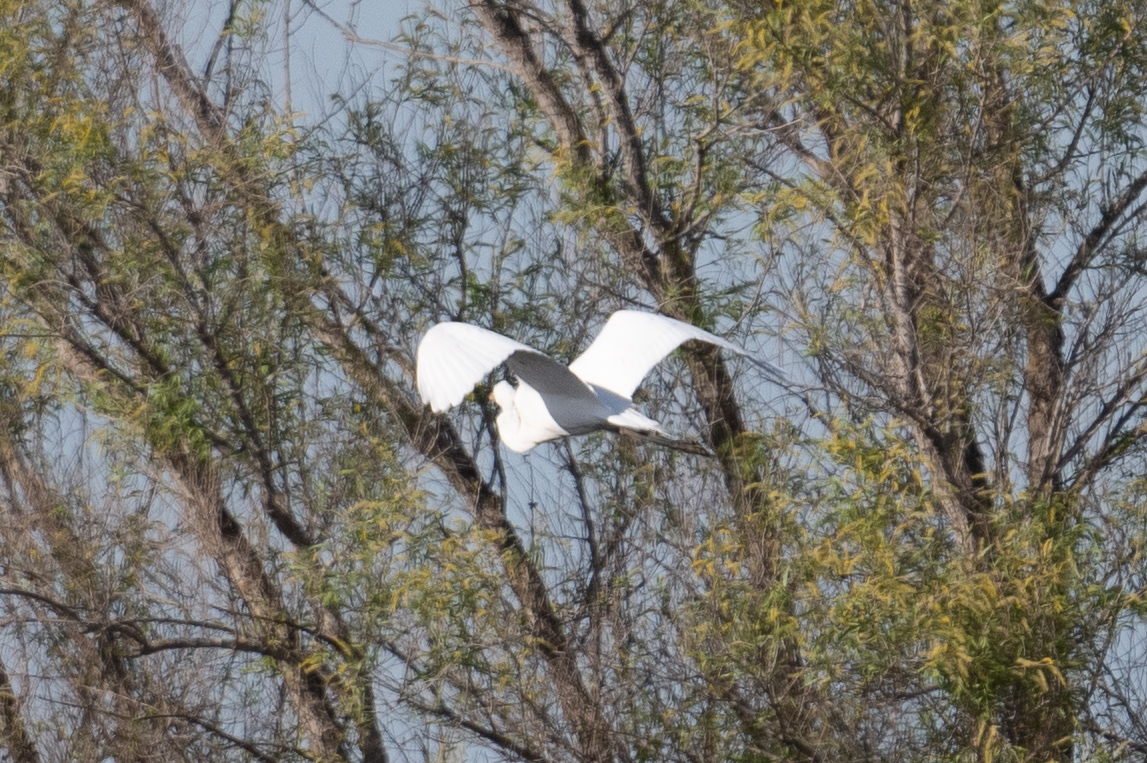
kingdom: Animalia
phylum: Chordata
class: Aves
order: Pelecaniformes
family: Ardeidae
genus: Ardea
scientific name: Ardea alba
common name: Great egret
